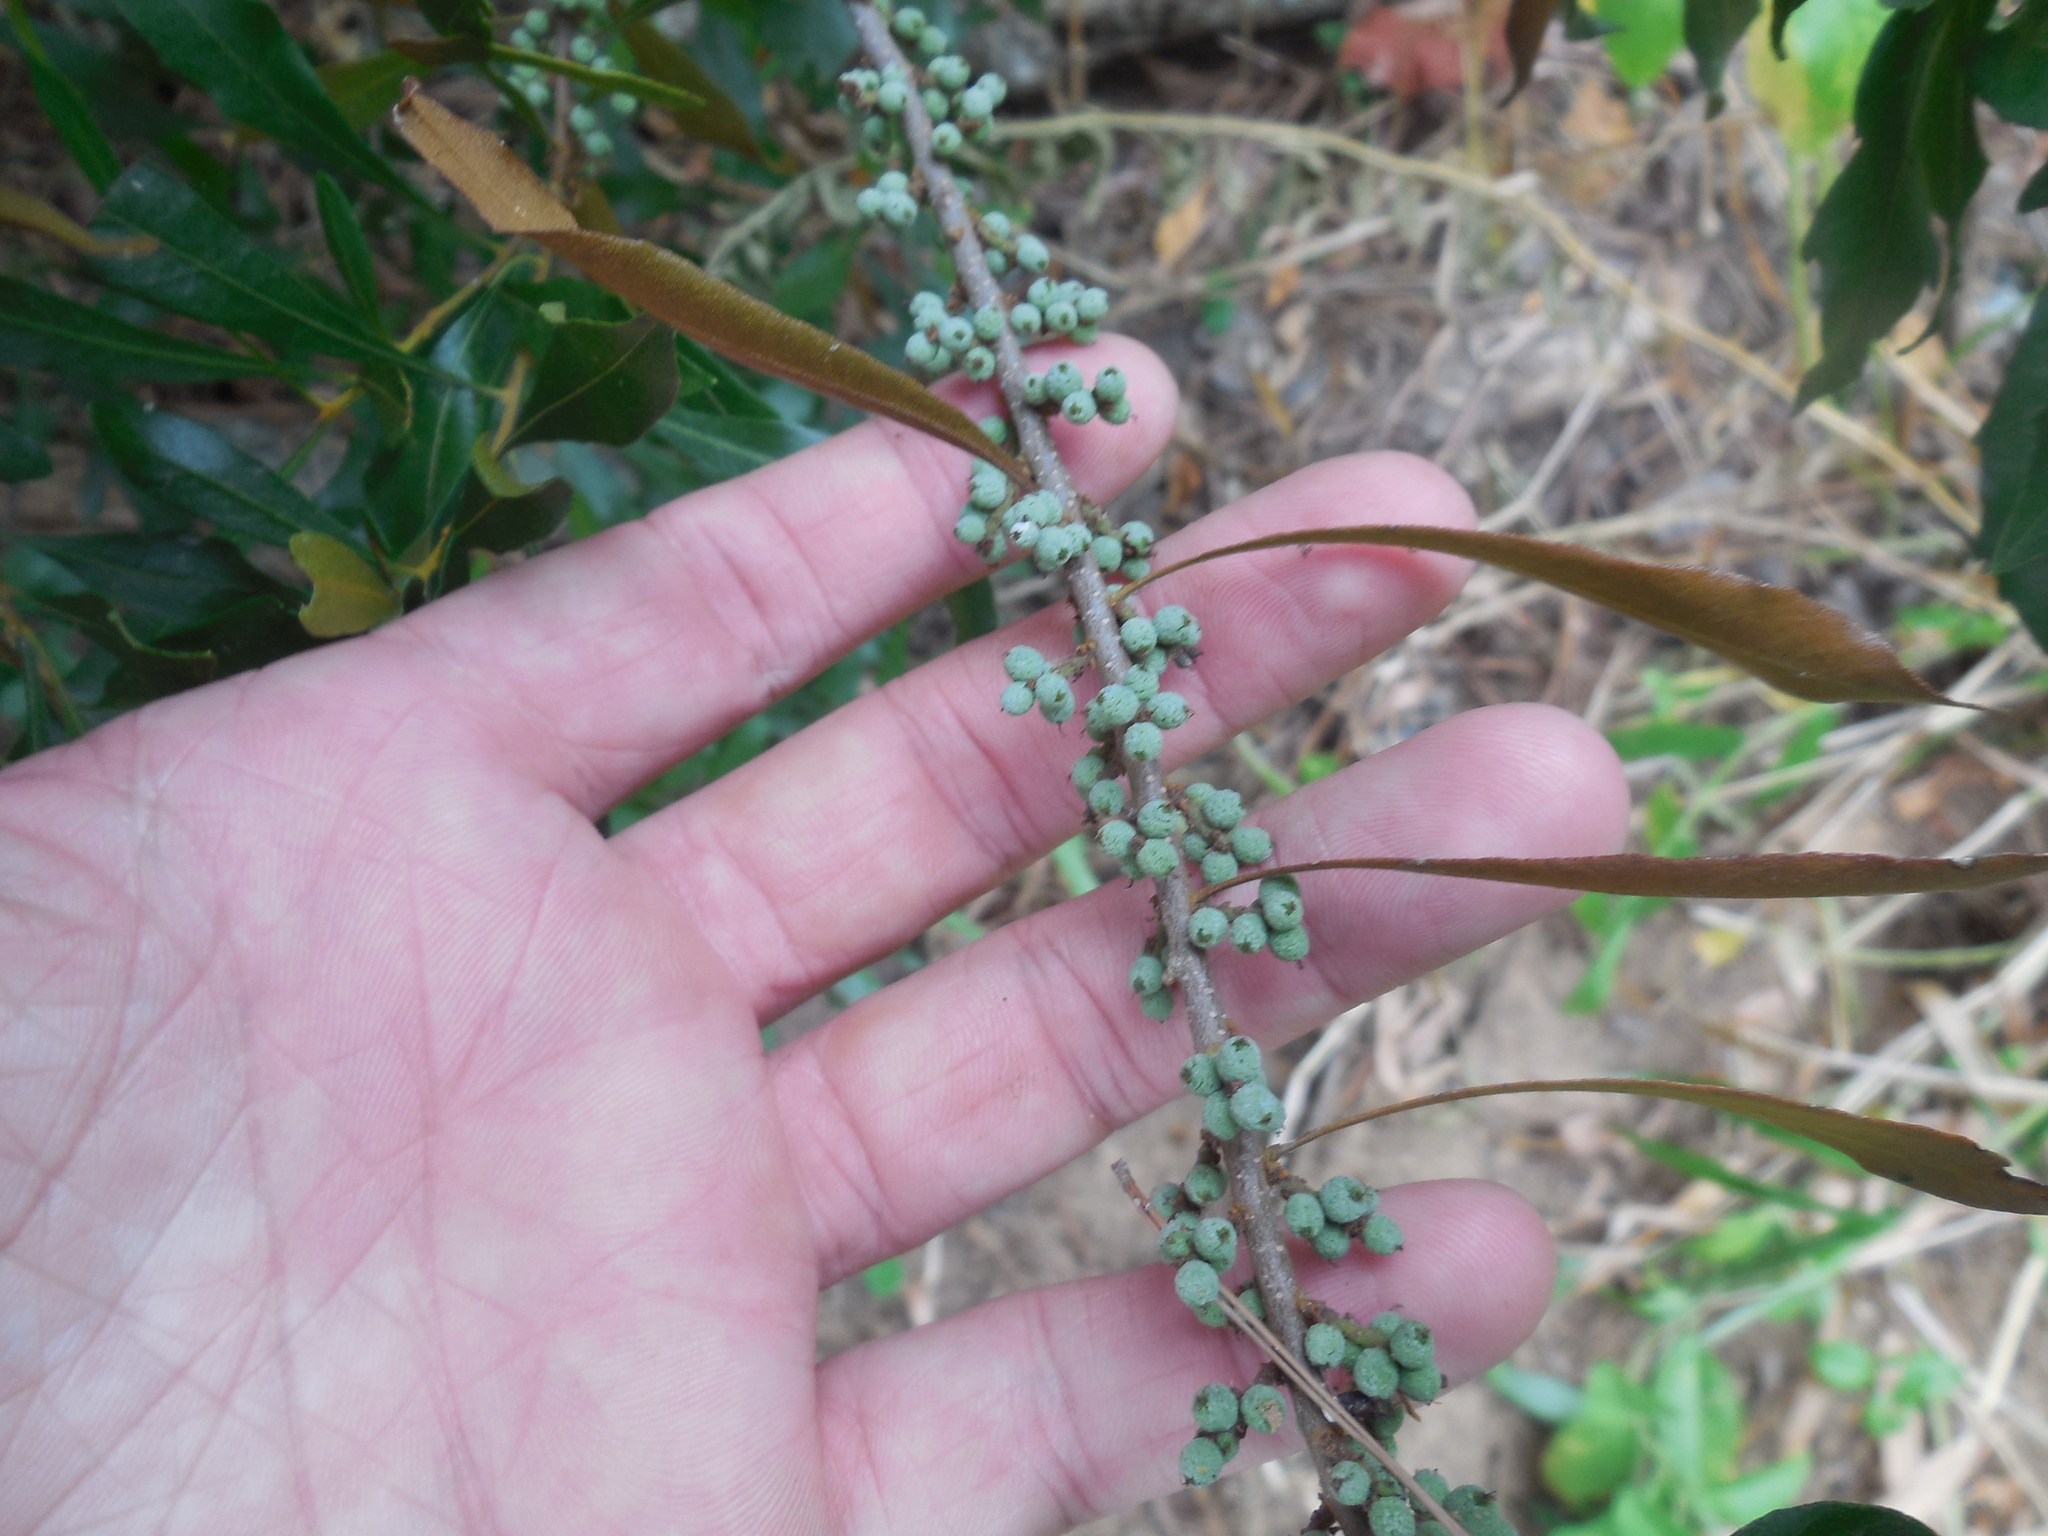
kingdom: Plantae
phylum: Tracheophyta
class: Magnoliopsida
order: Fagales
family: Myricaceae
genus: Morella
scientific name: Morella cerifera
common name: Wax myrtle
